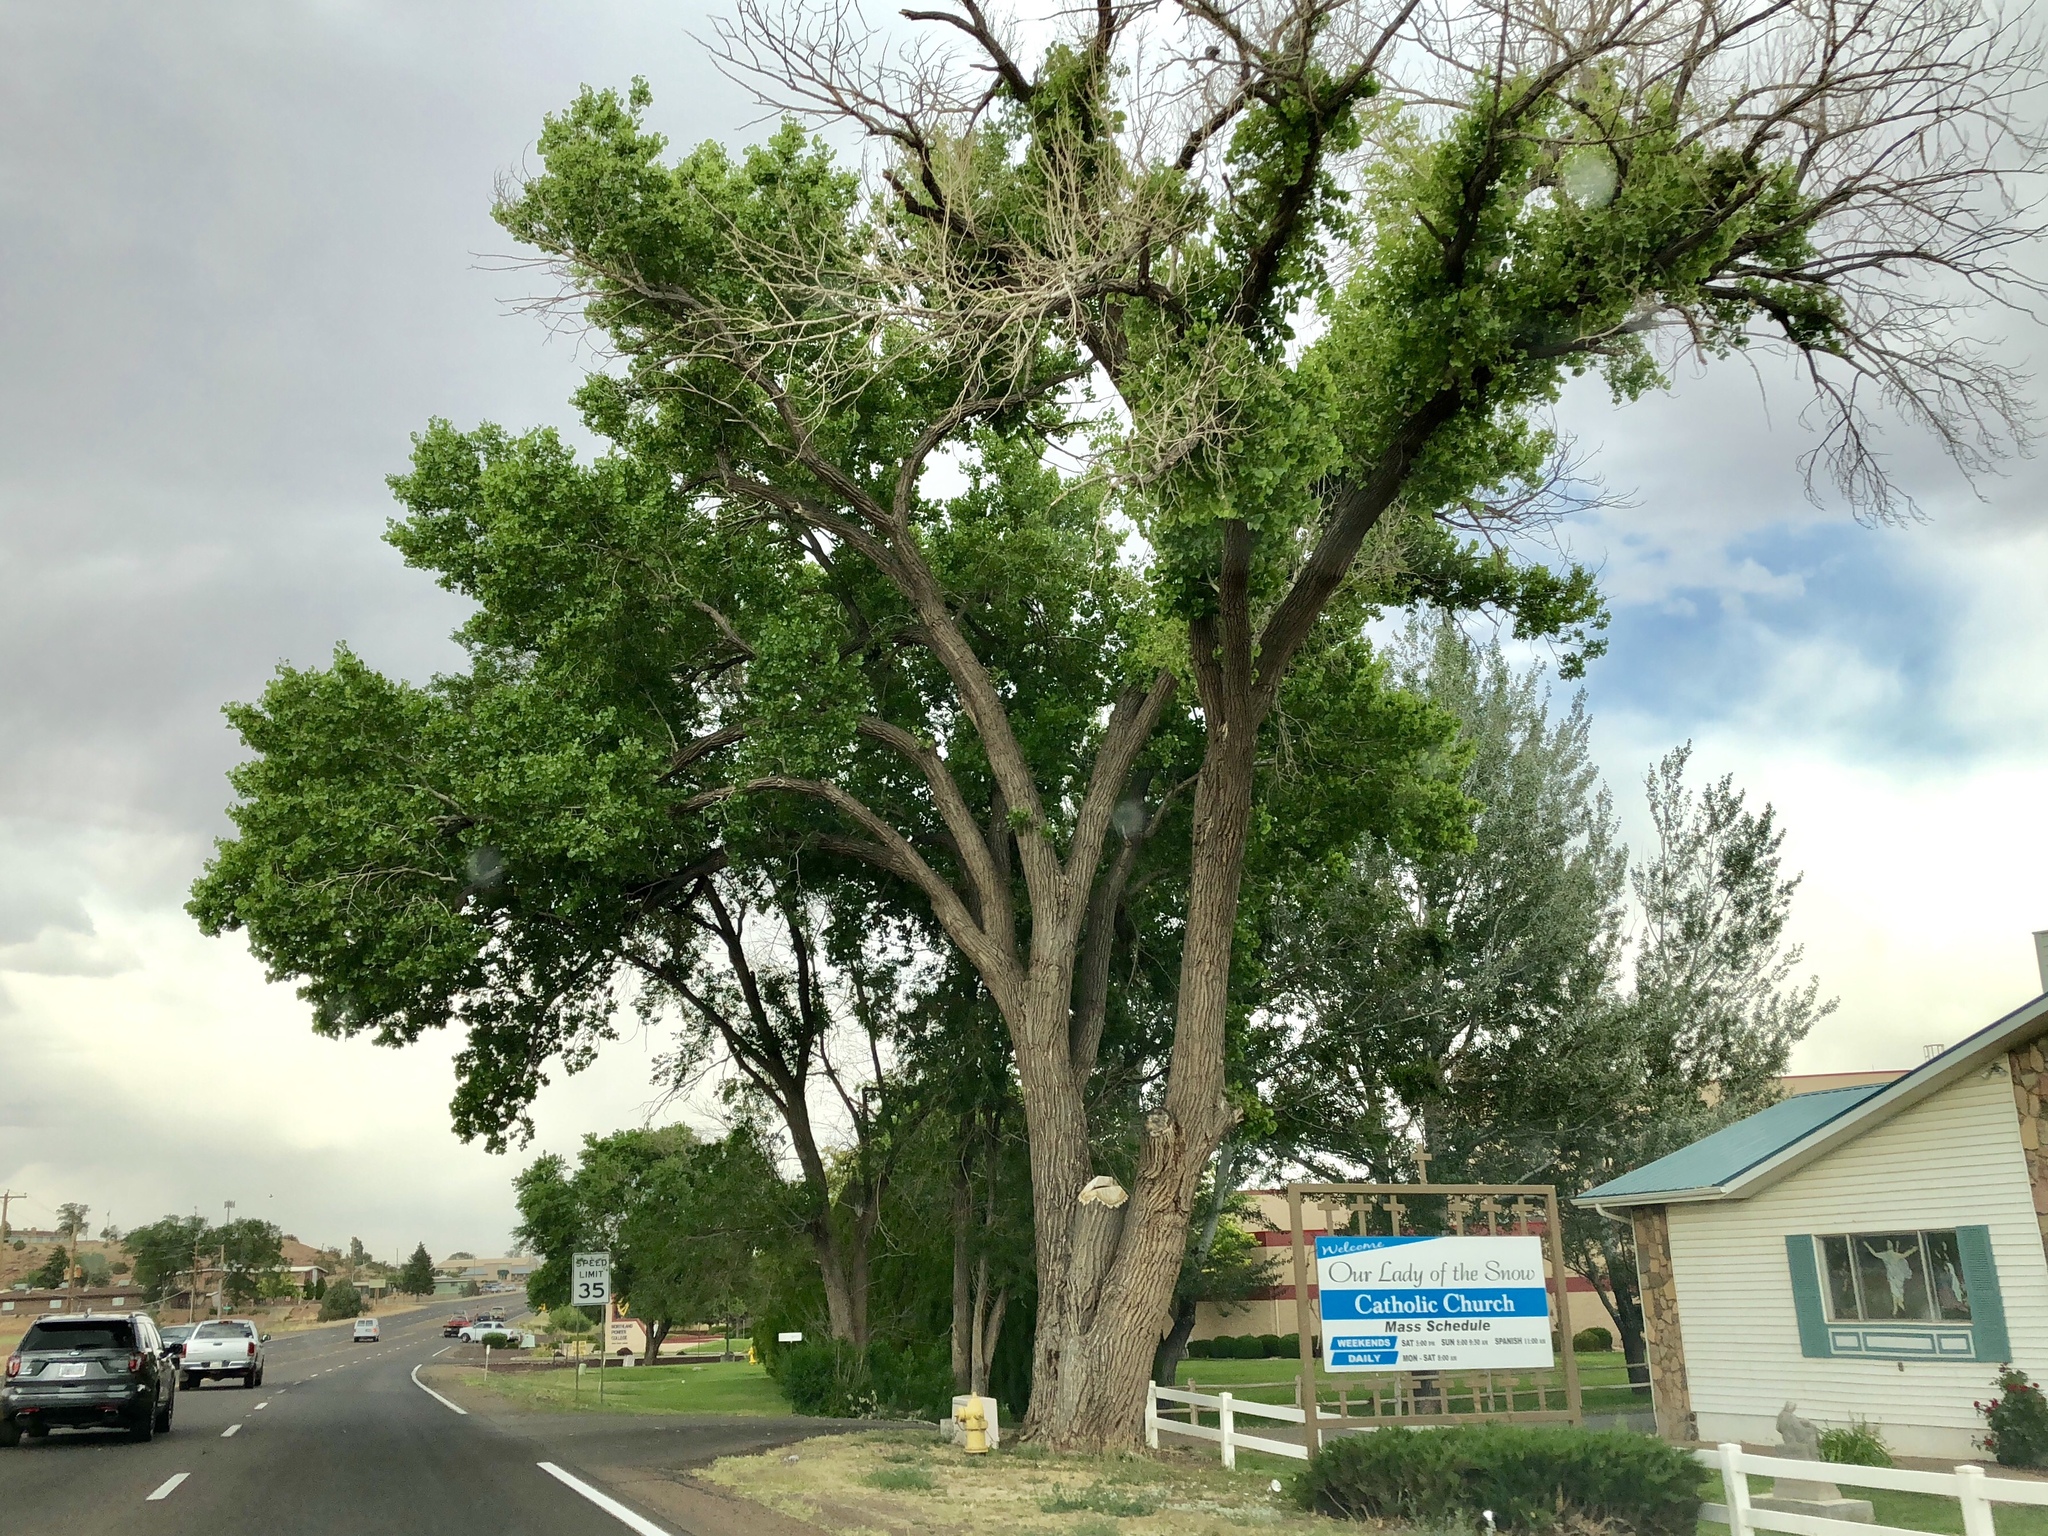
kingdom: Plantae
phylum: Tracheophyta
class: Magnoliopsida
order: Malpighiales
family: Salicaceae
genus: Populus
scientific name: Populus fremontii
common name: Fremont's cottonwood
